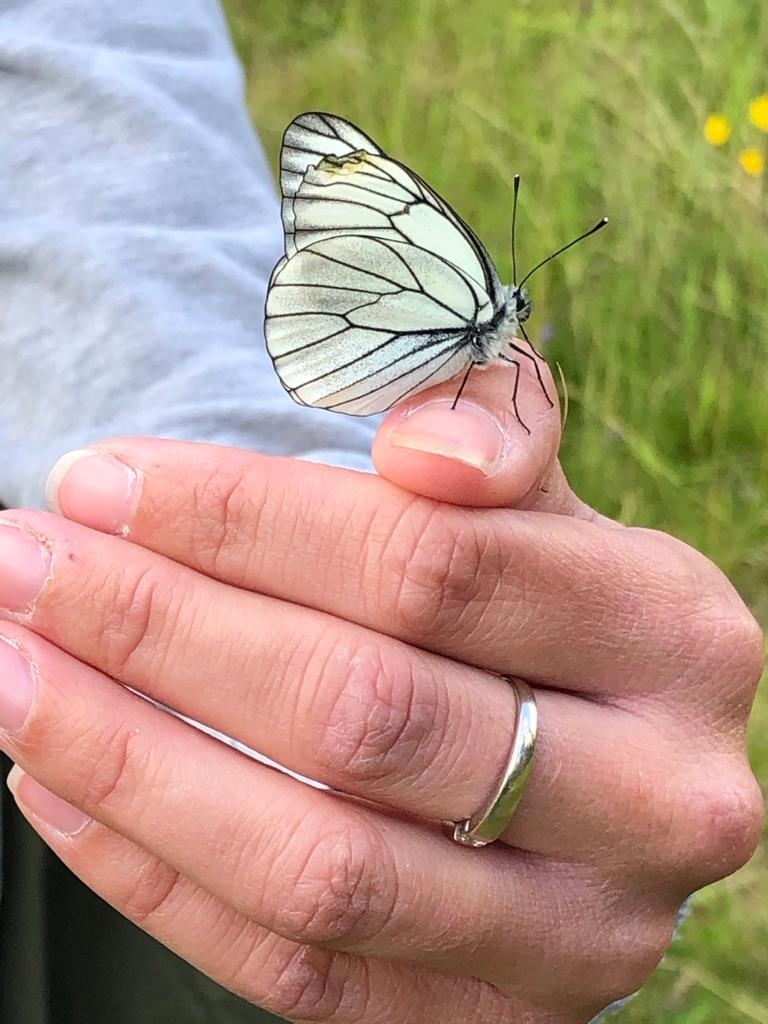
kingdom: Animalia
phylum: Arthropoda
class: Insecta
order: Lepidoptera
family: Pieridae
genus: Aporia
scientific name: Aporia crataegi
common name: Black-veined white
